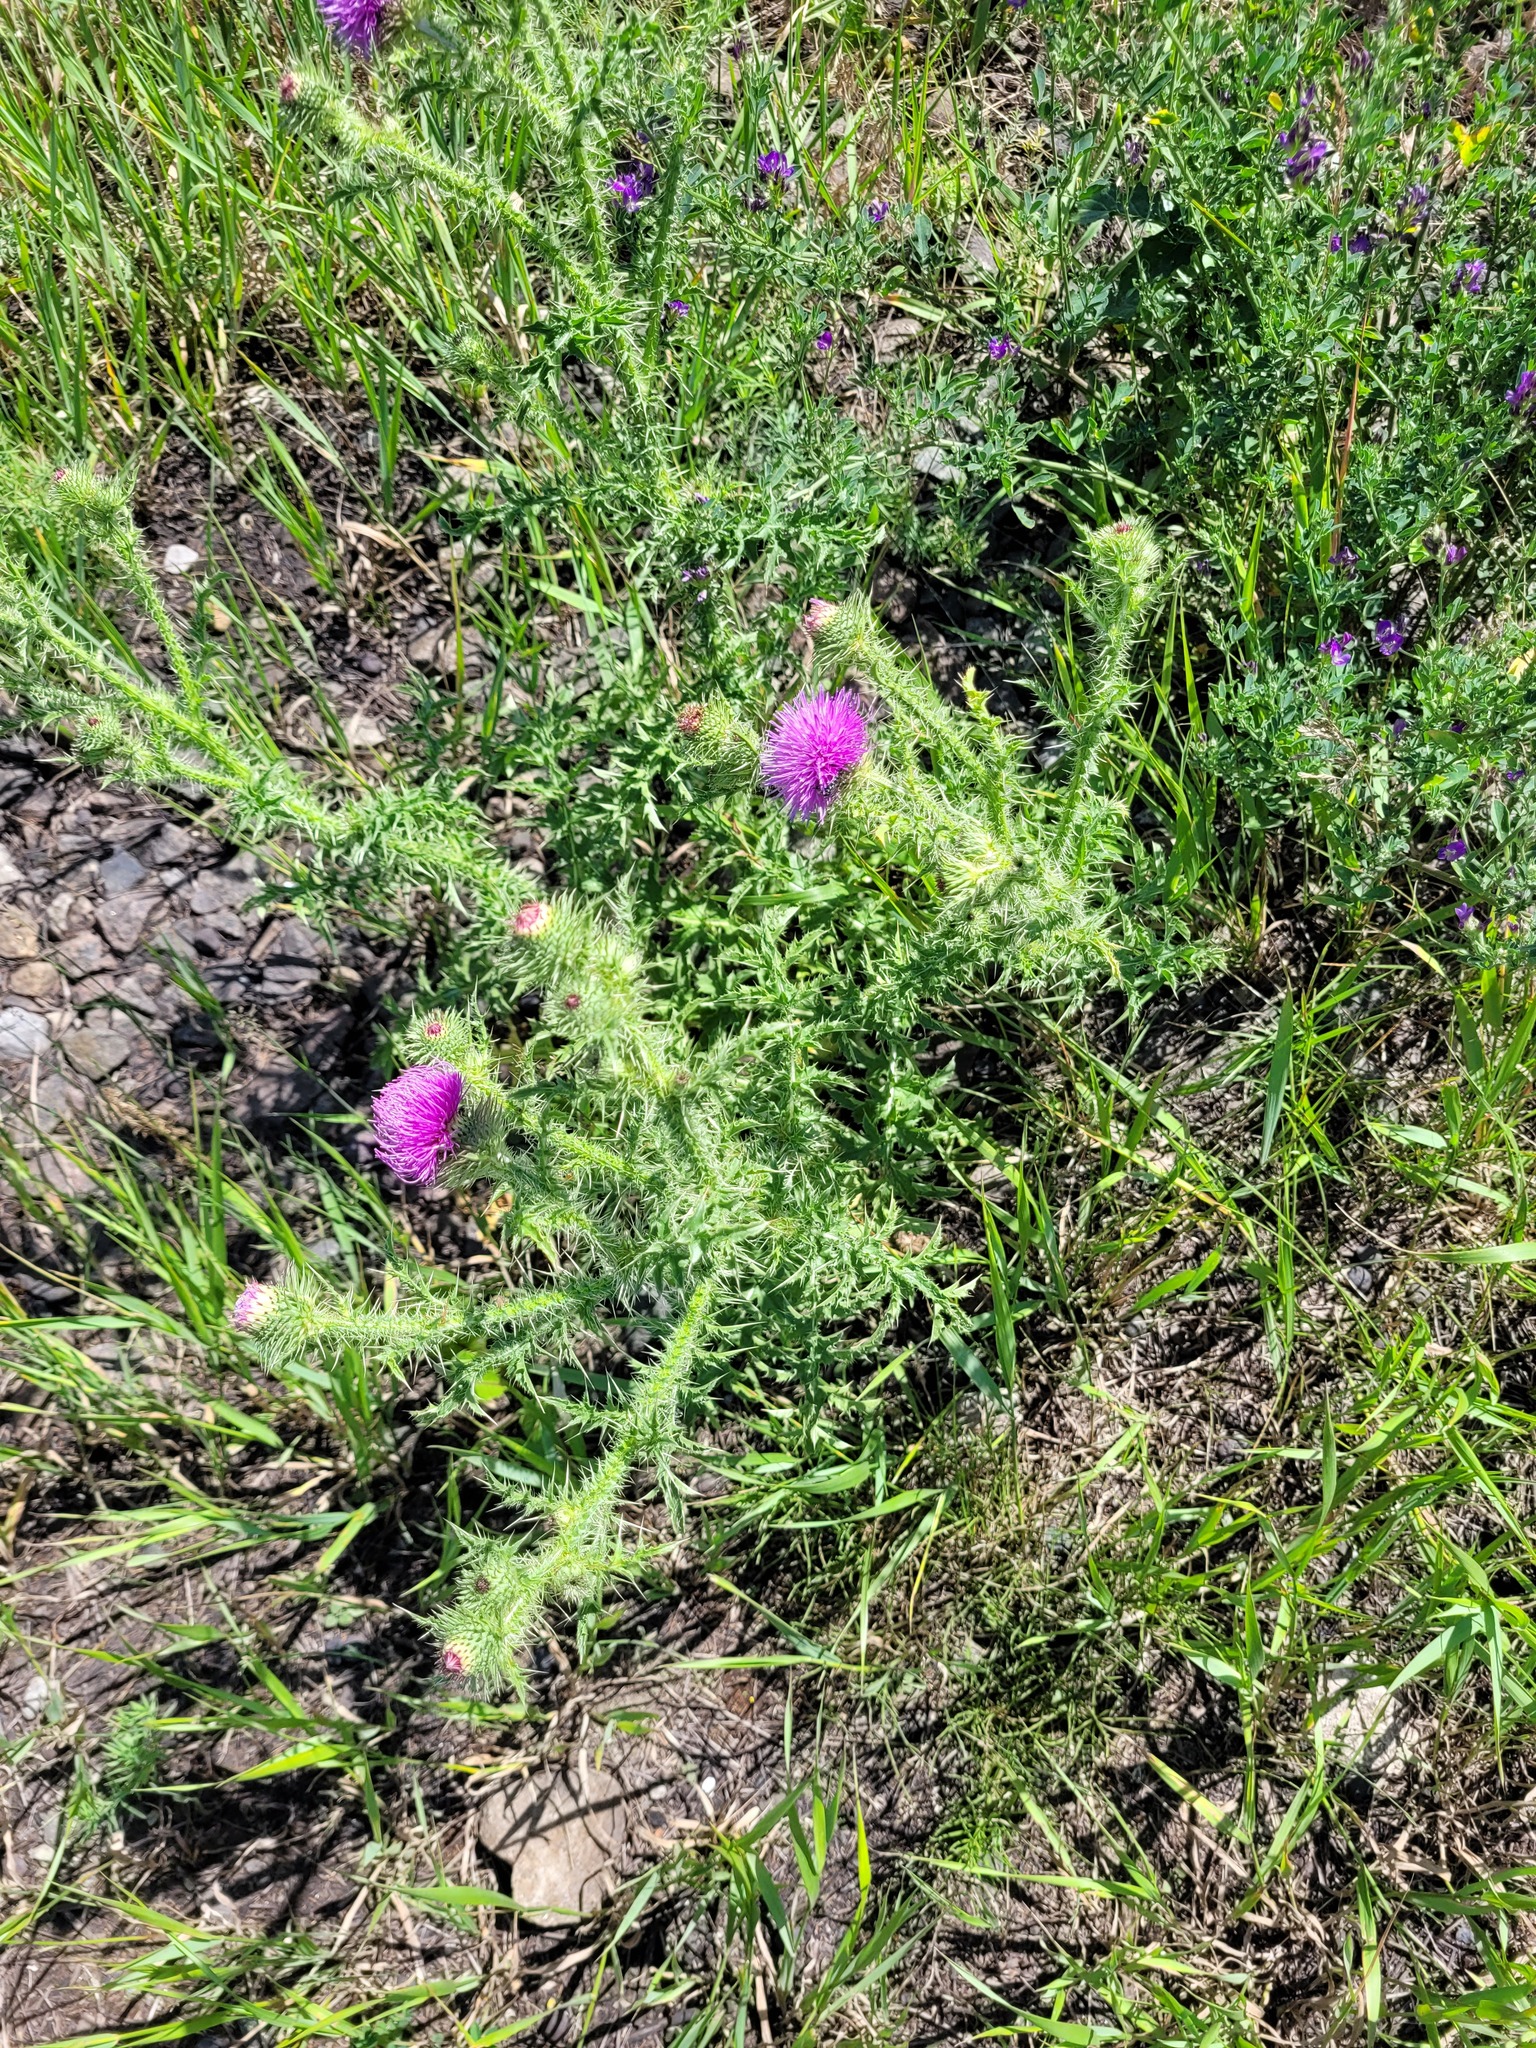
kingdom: Plantae
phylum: Tracheophyta
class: Magnoliopsida
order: Asterales
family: Asteraceae
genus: Carduus
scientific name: Carduus acanthoides
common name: Plumeless thistle
